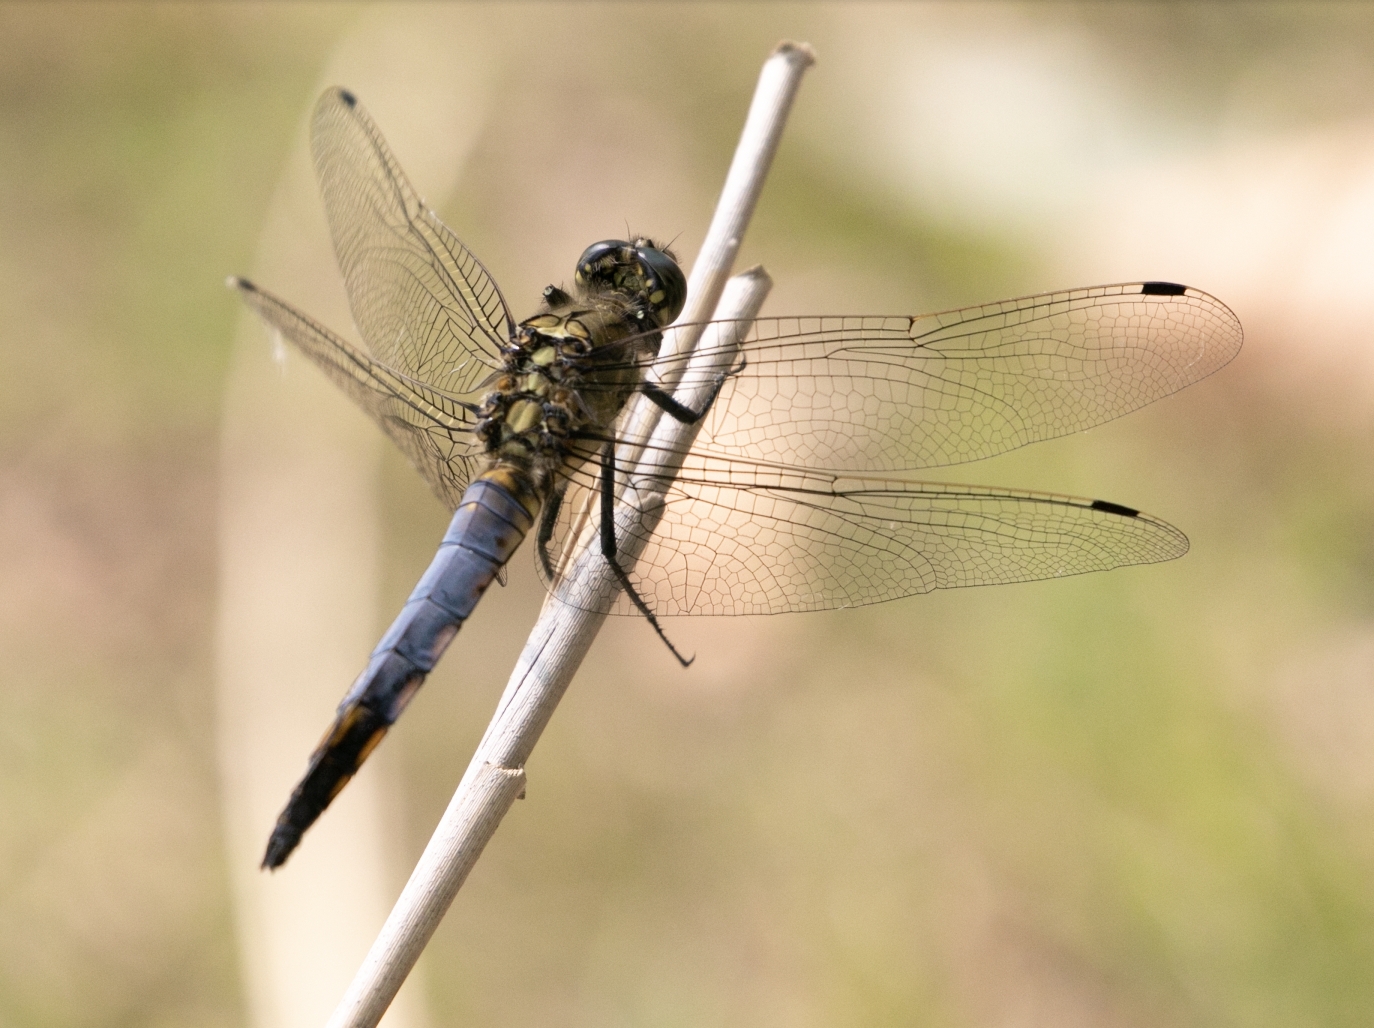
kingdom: Animalia
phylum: Arthropoda
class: Insecta
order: Odonata
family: Libellulidae
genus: Orthetrum
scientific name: Orthetrum cancellatum
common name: Black-tailed skimmer
